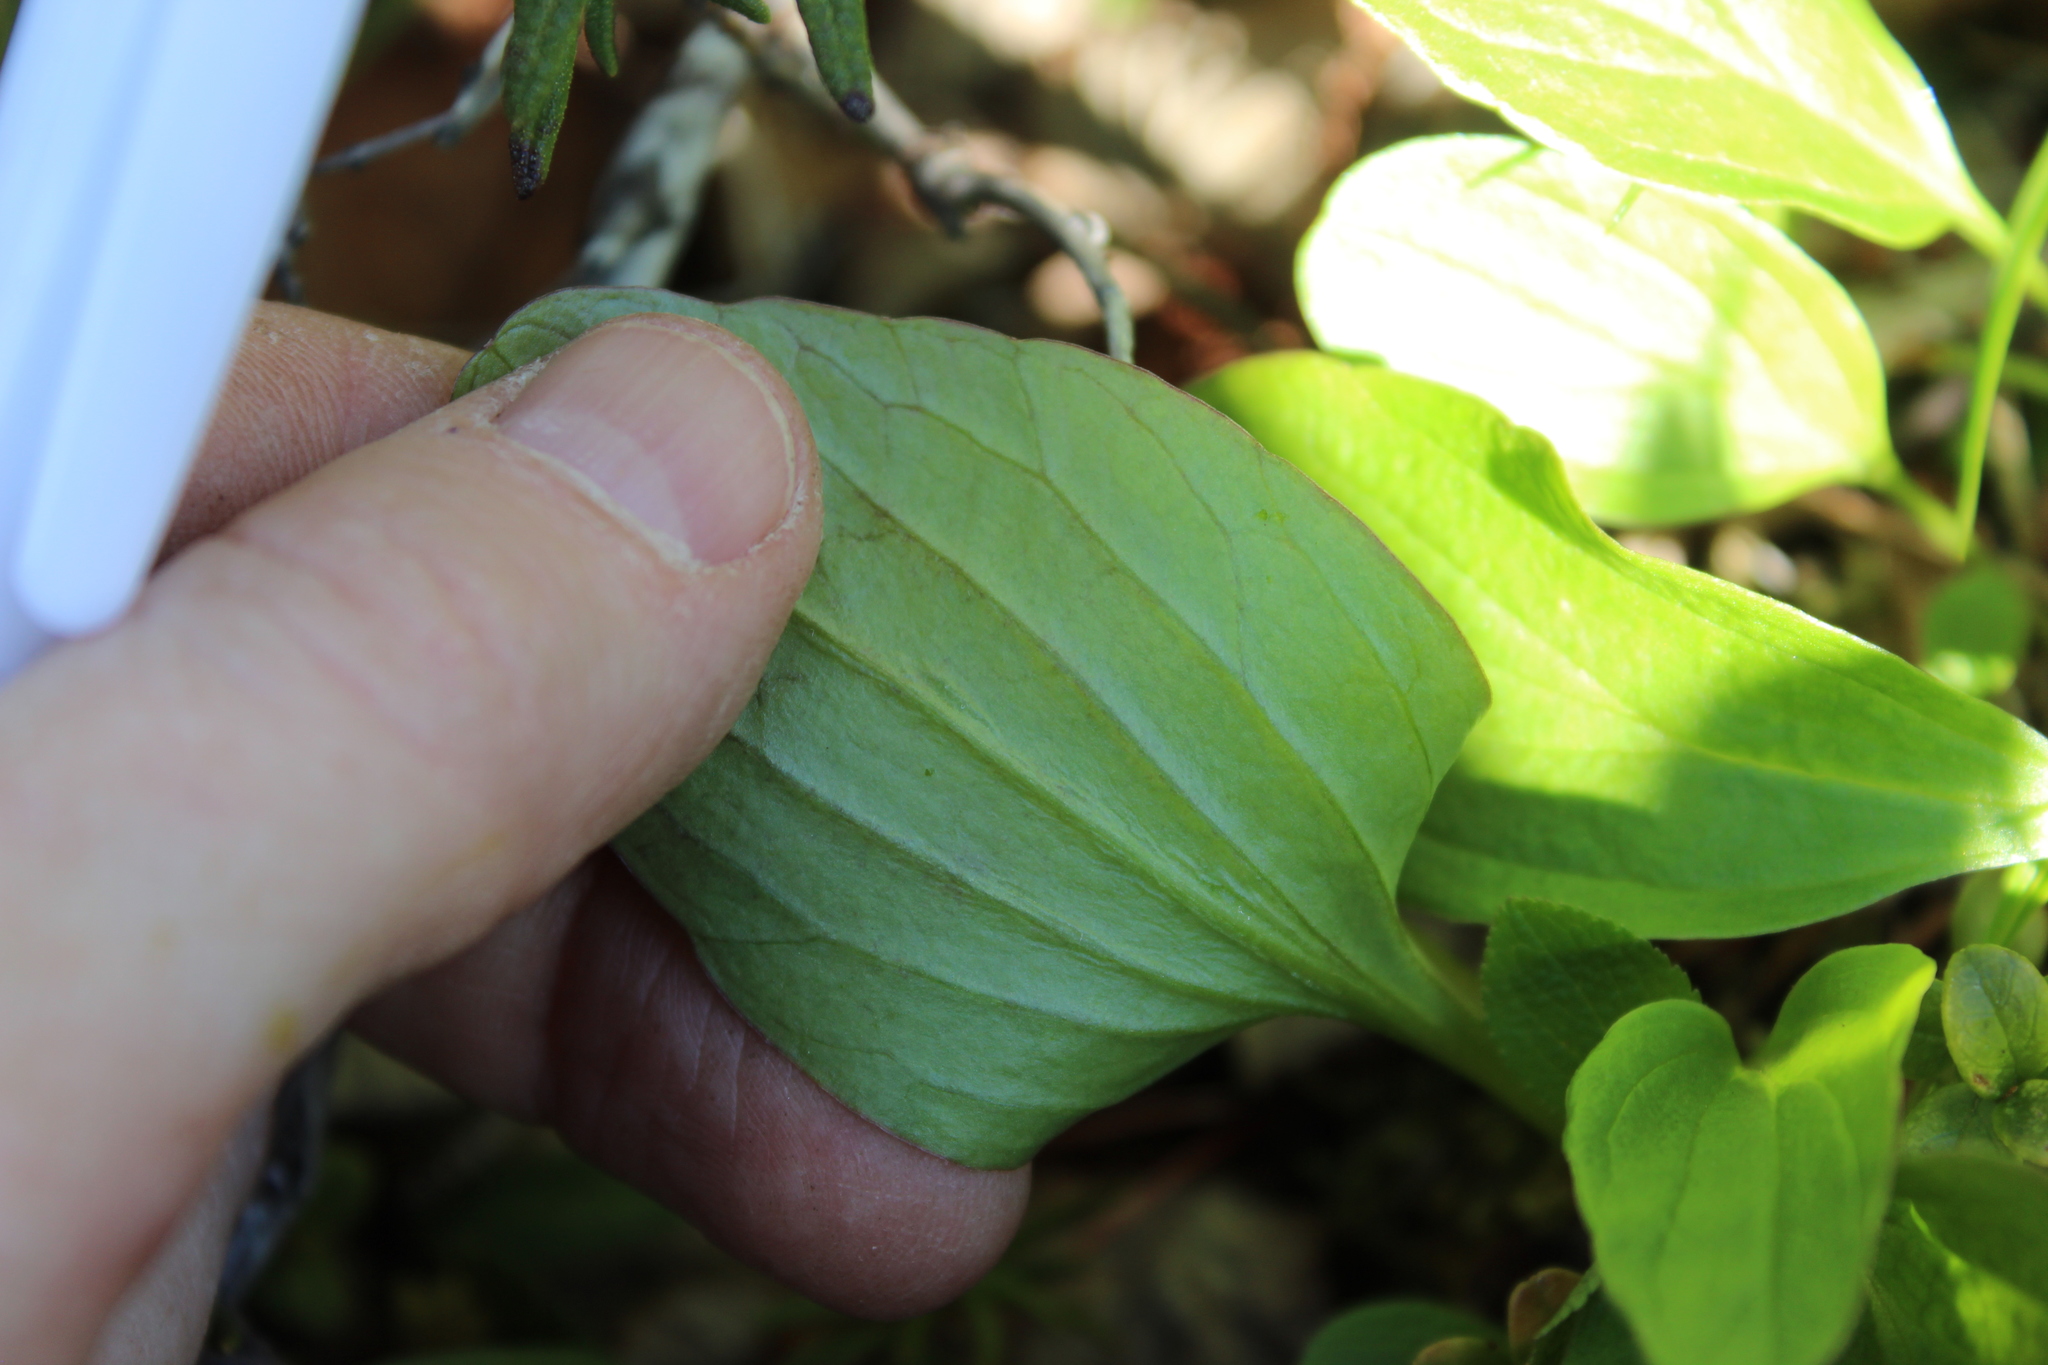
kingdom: Plantae
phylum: Tracheophyta
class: Magnoliopsida
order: Dipsacales
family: Caprifoliaceae
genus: Valeriana
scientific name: Valeriana capitata
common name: Capitate valerian
